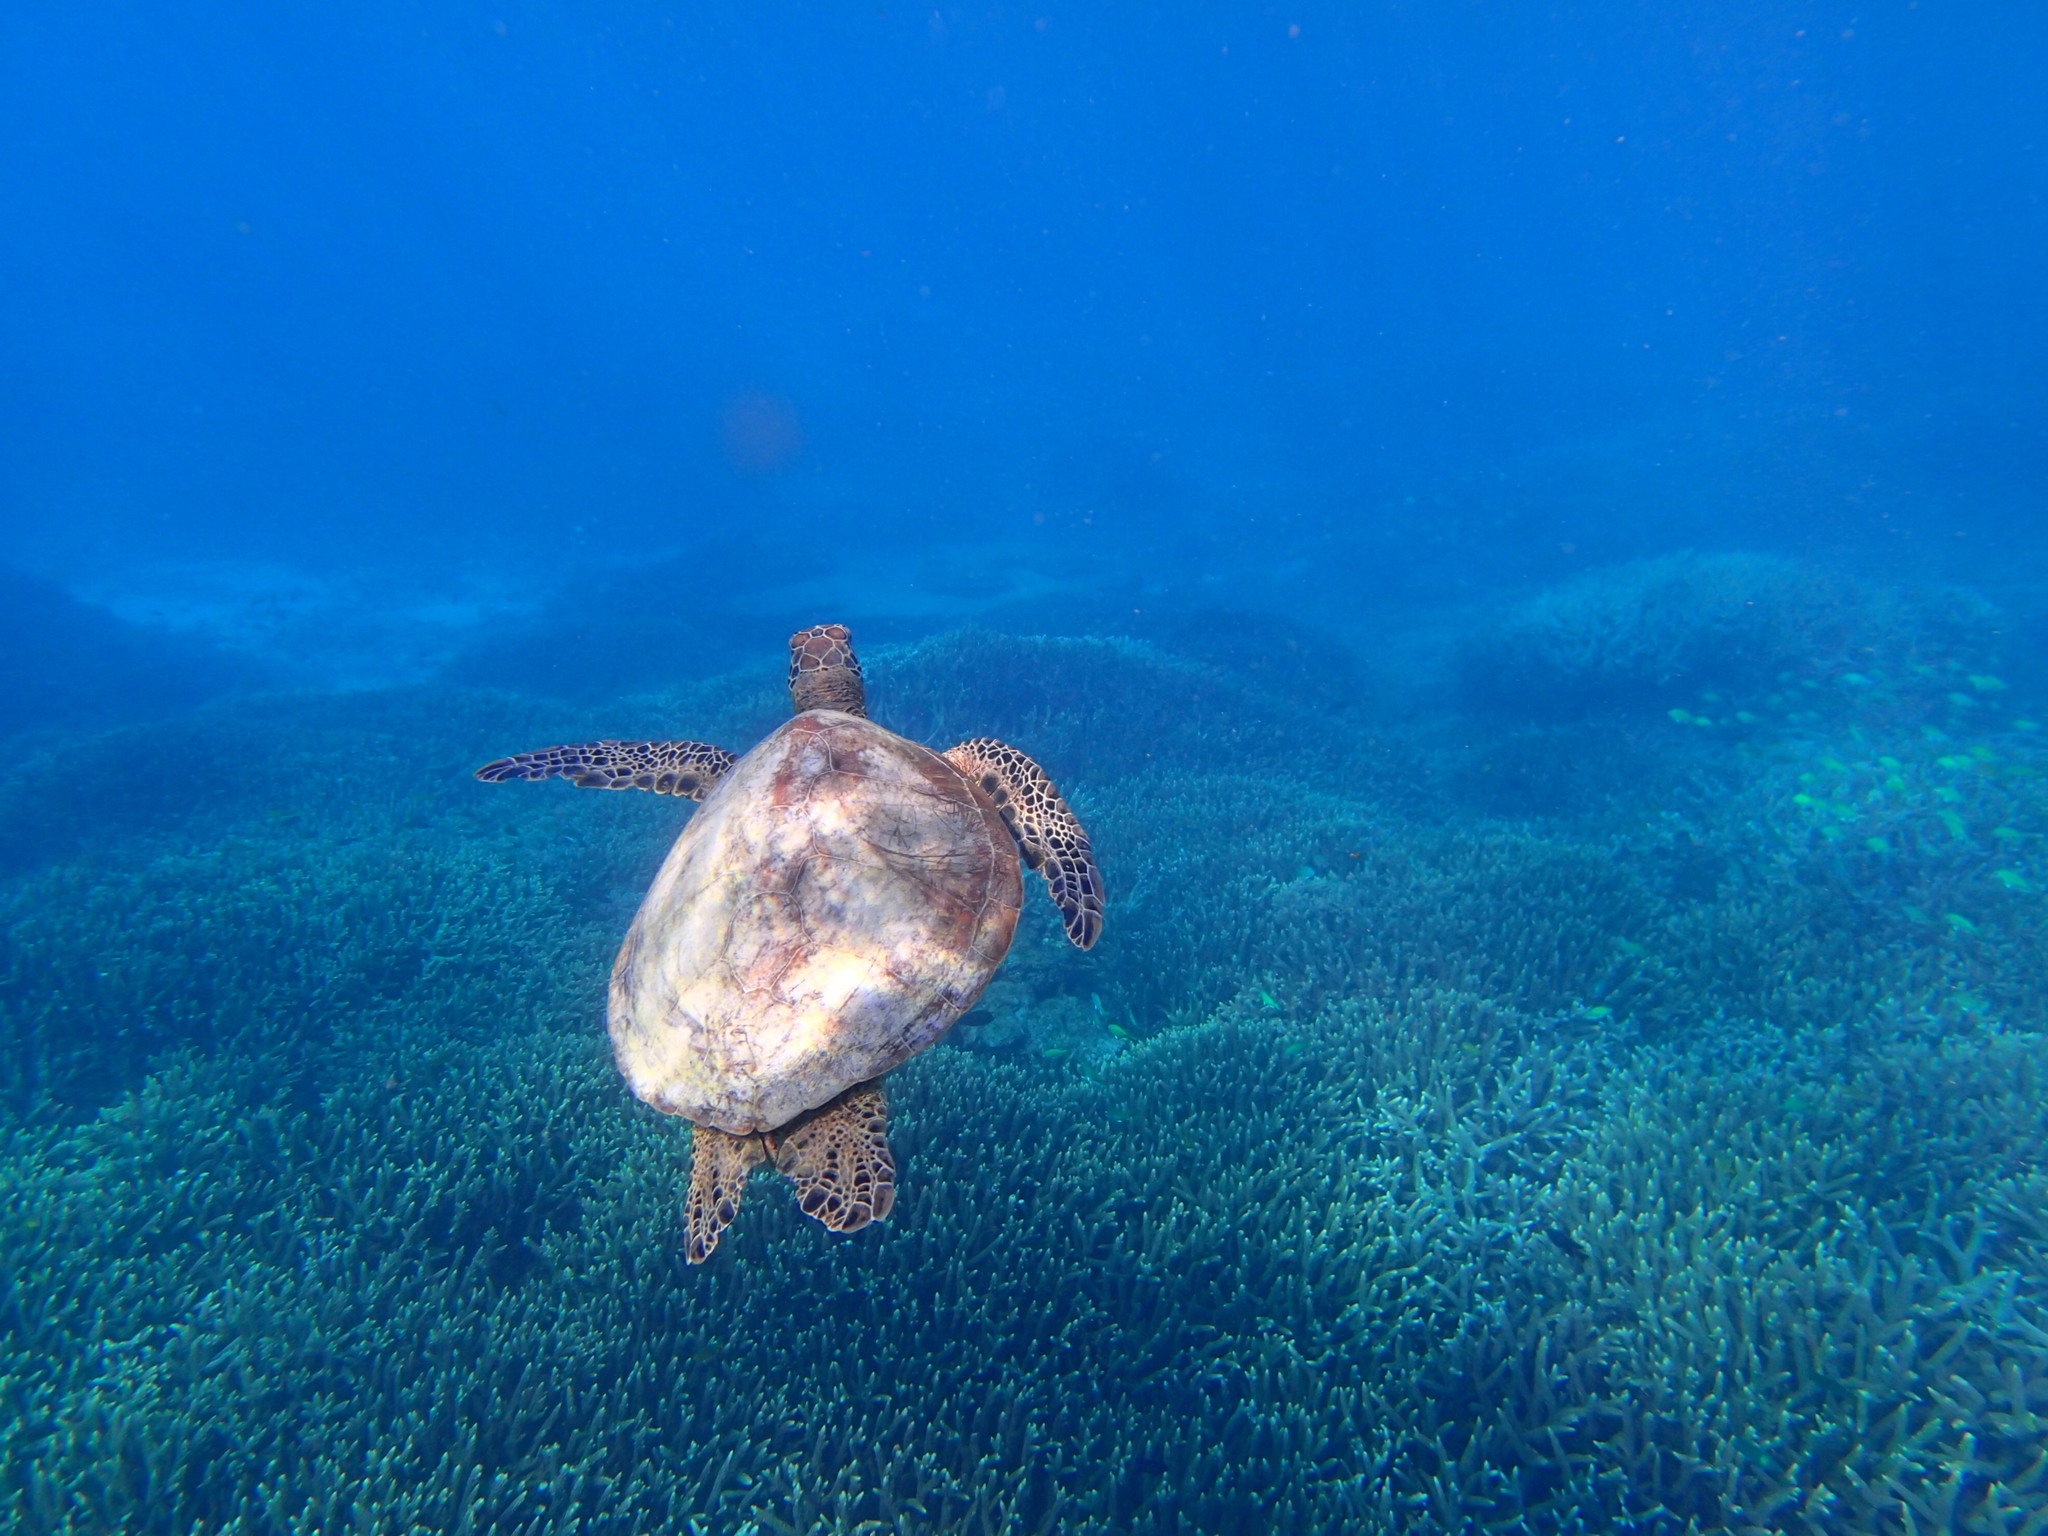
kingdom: Animalia
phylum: Chordata
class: Testudines
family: Cheloniidae
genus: Chelonia
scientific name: Chelonia mydas
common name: Green turtle
